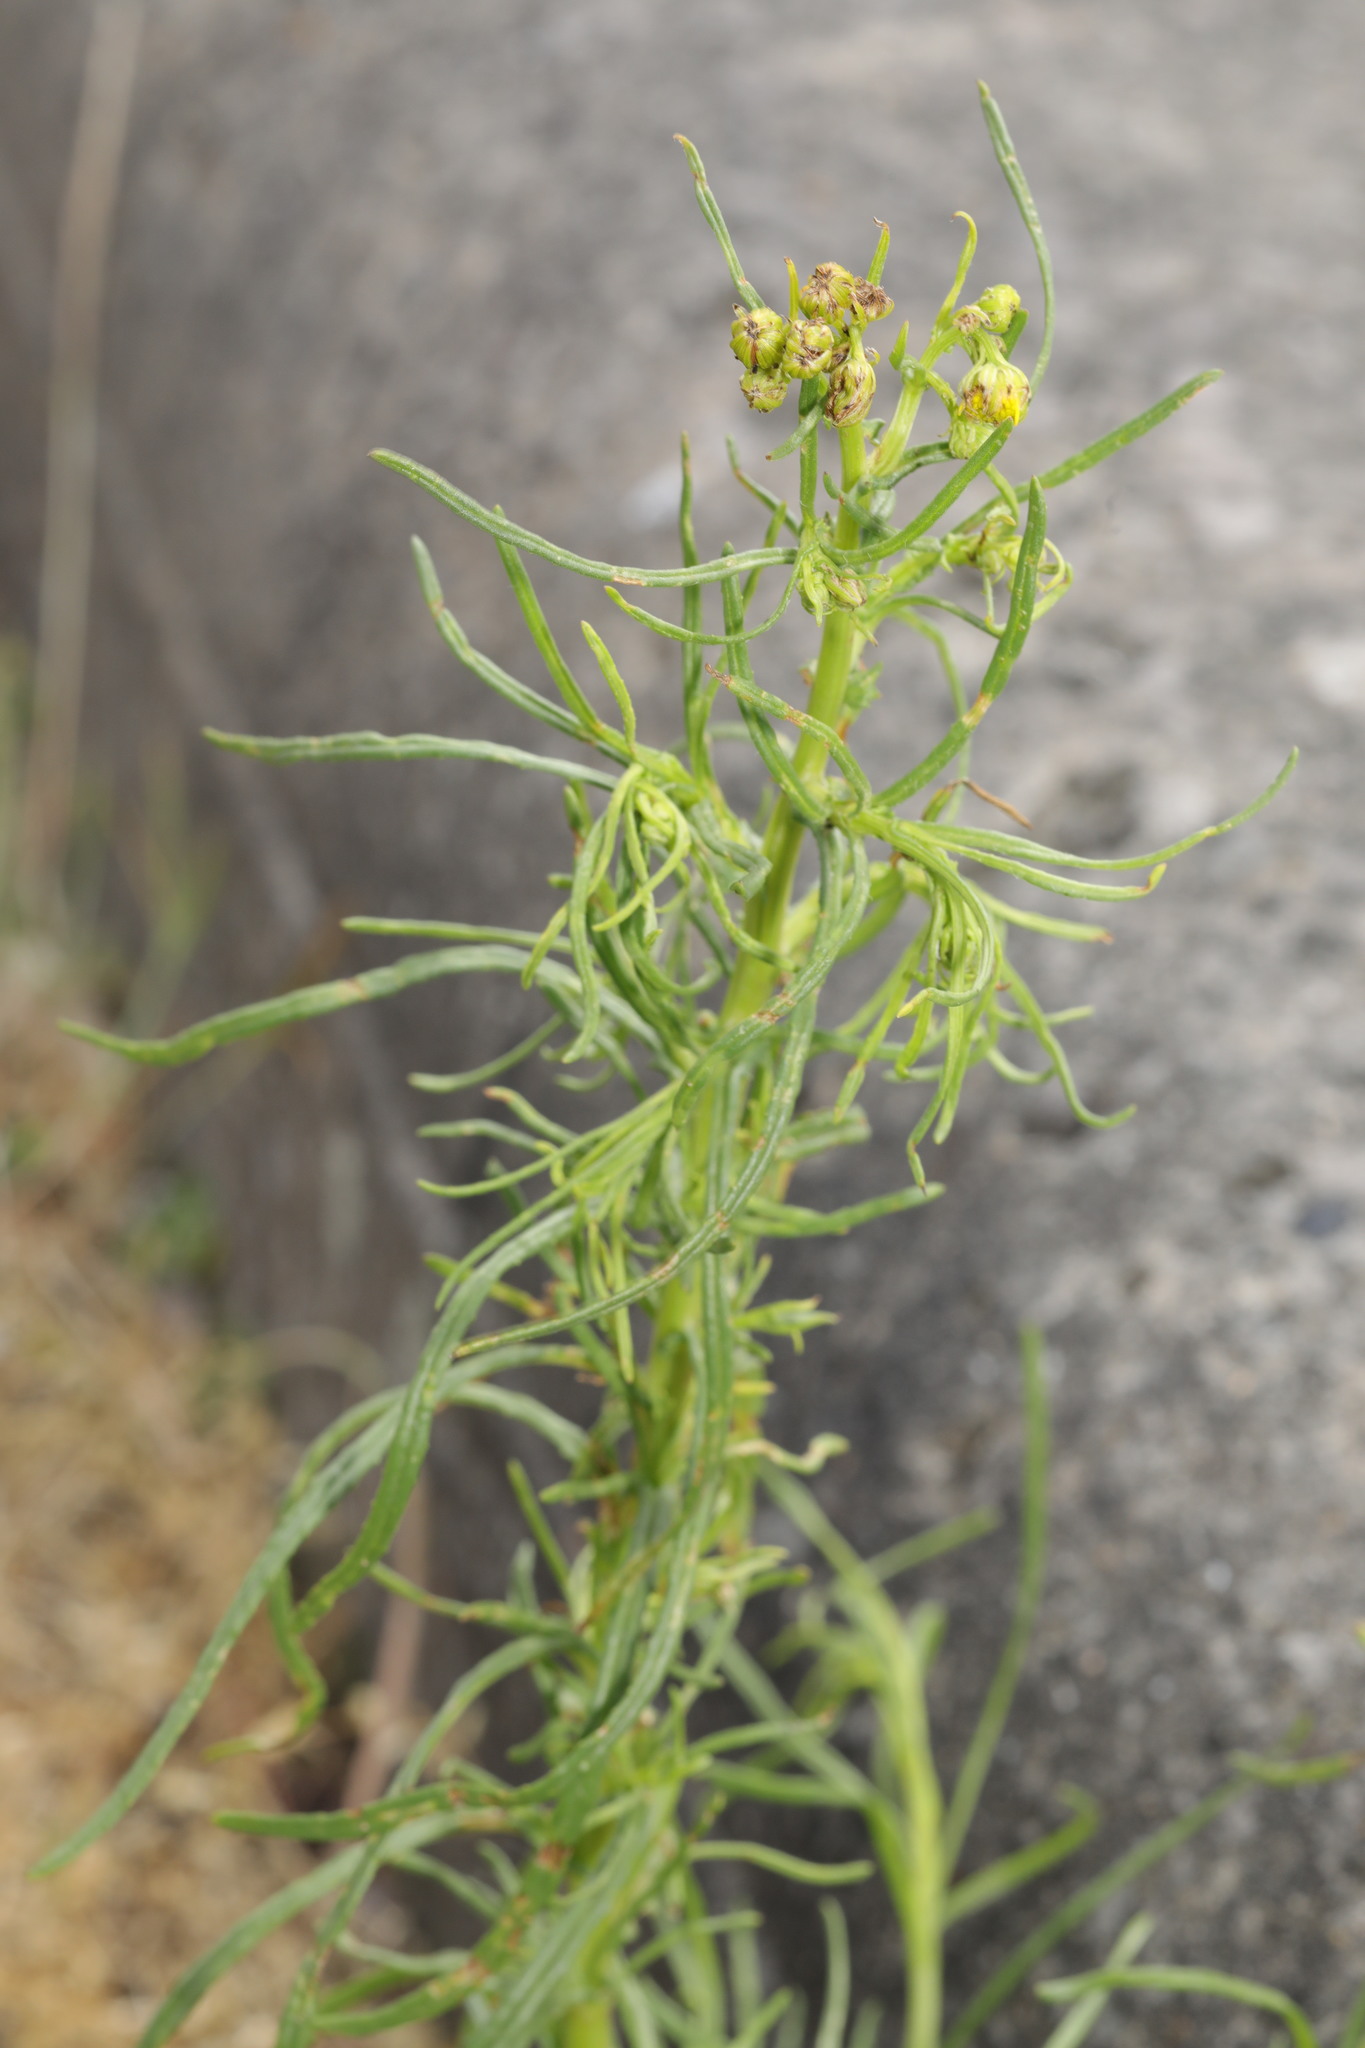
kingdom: Plantae
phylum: Tracheophyta
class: Magnoliopsida
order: Asterales
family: Asteraceae
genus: Senecio
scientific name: Senecio inaequidens
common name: Narrow-leaved ragwort
